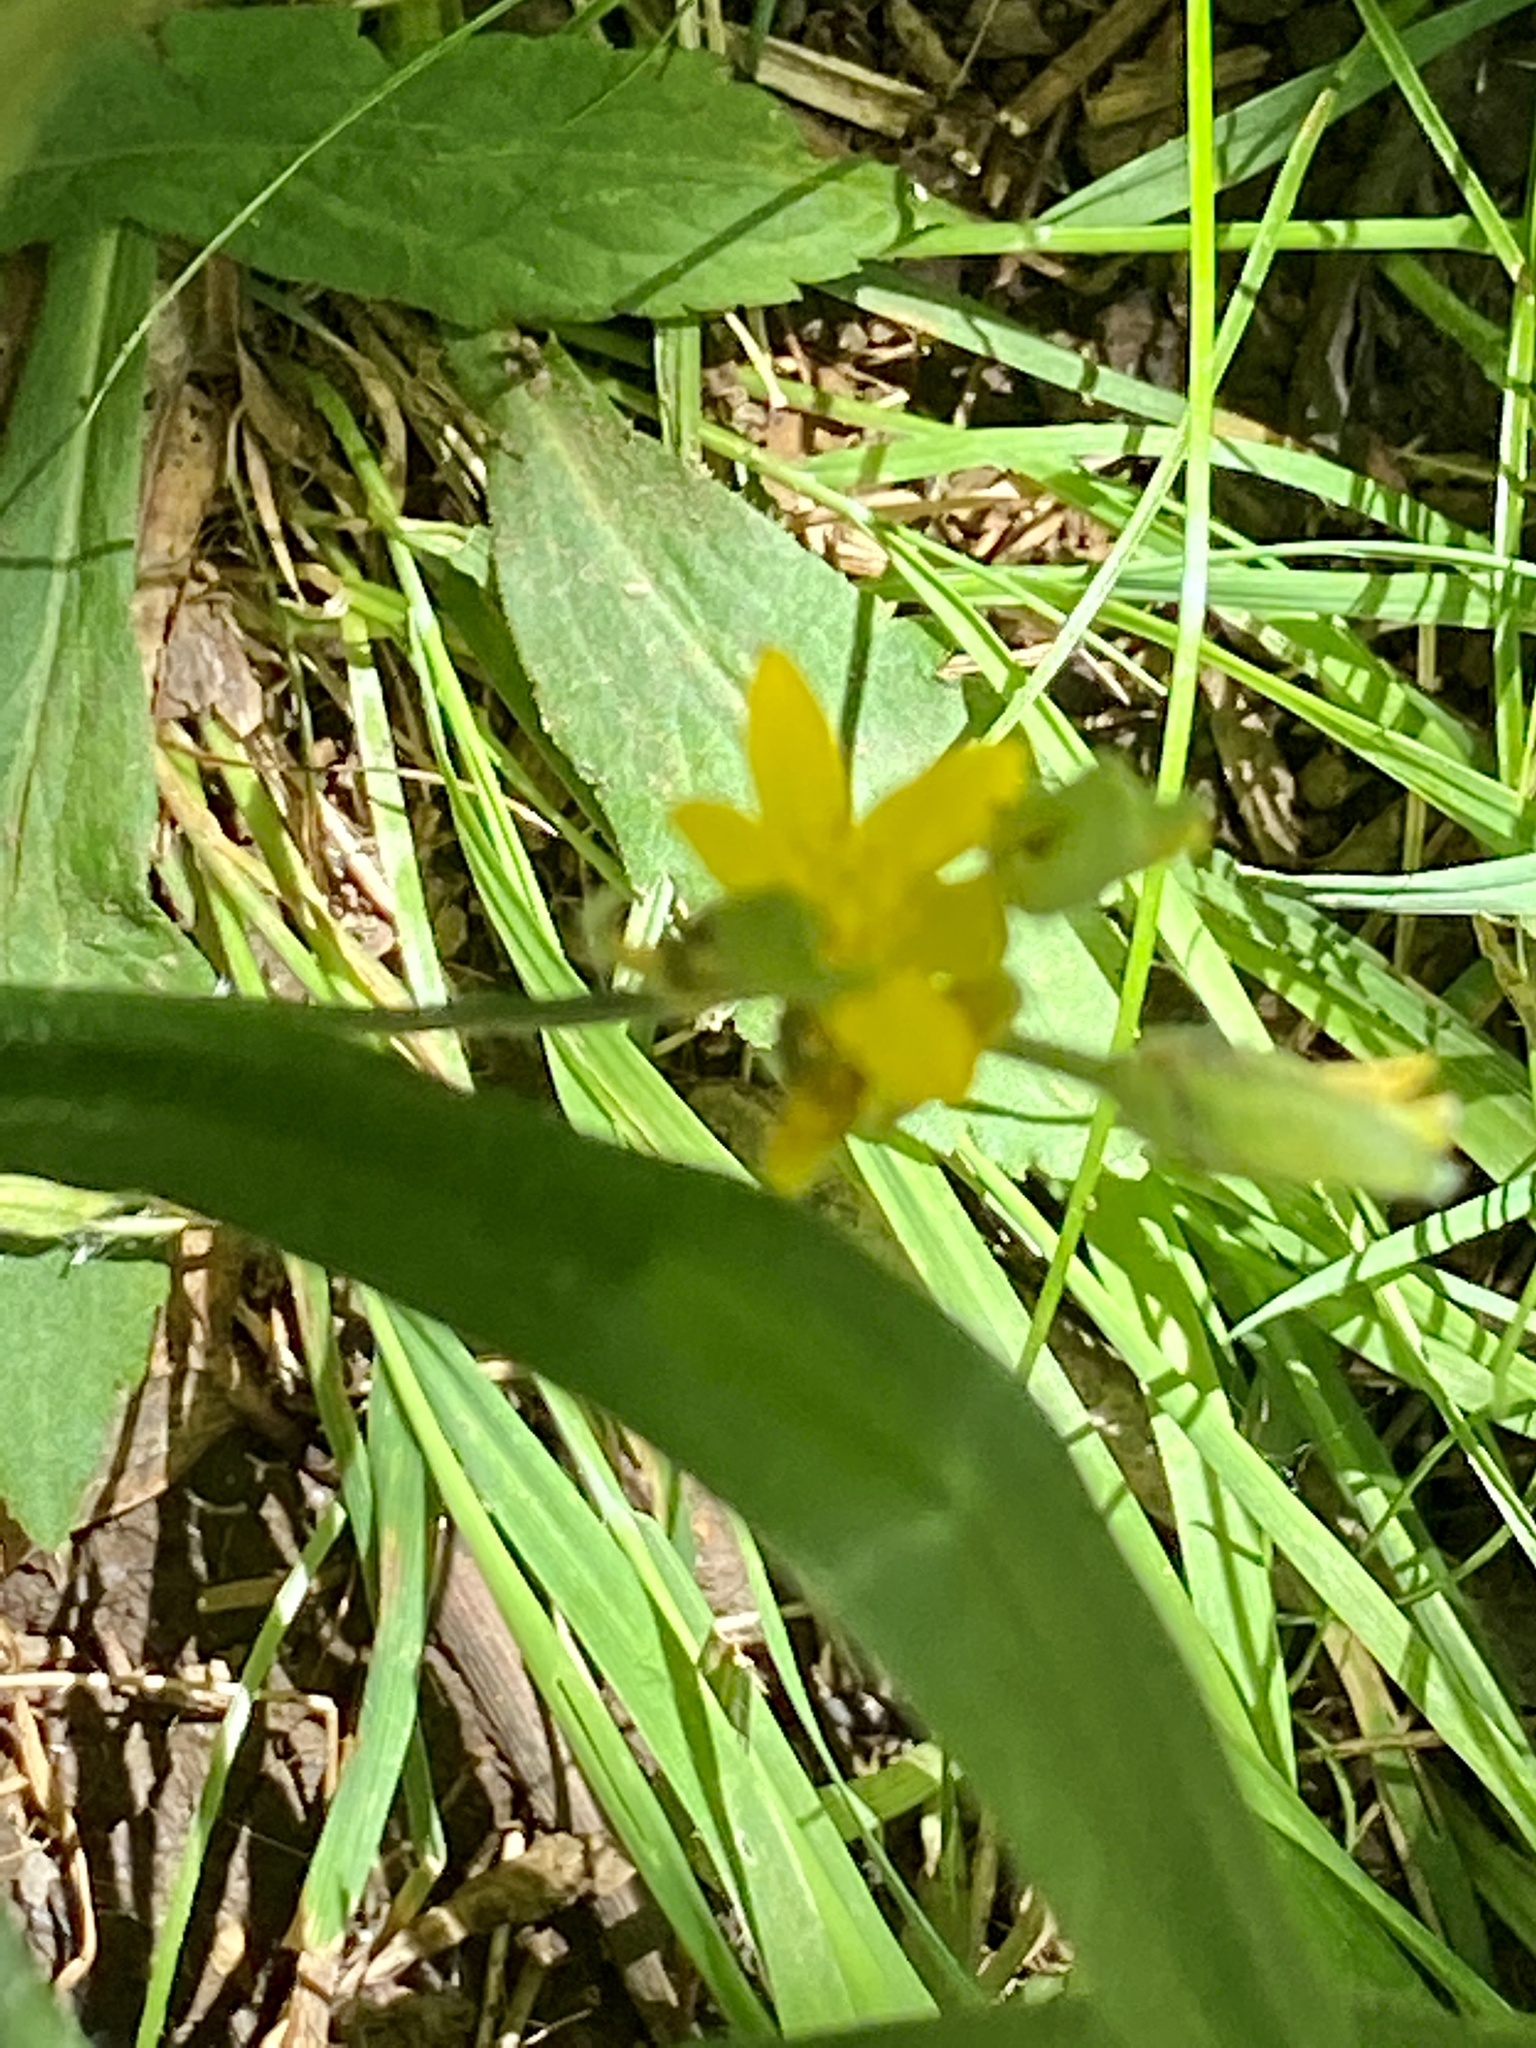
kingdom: Plantae
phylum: Tracheophyta
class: Liliopsida
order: Asparagales
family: Hypoxidaceae
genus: Hypoxis
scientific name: Hypoxis hirsuta
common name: Common goldstar
